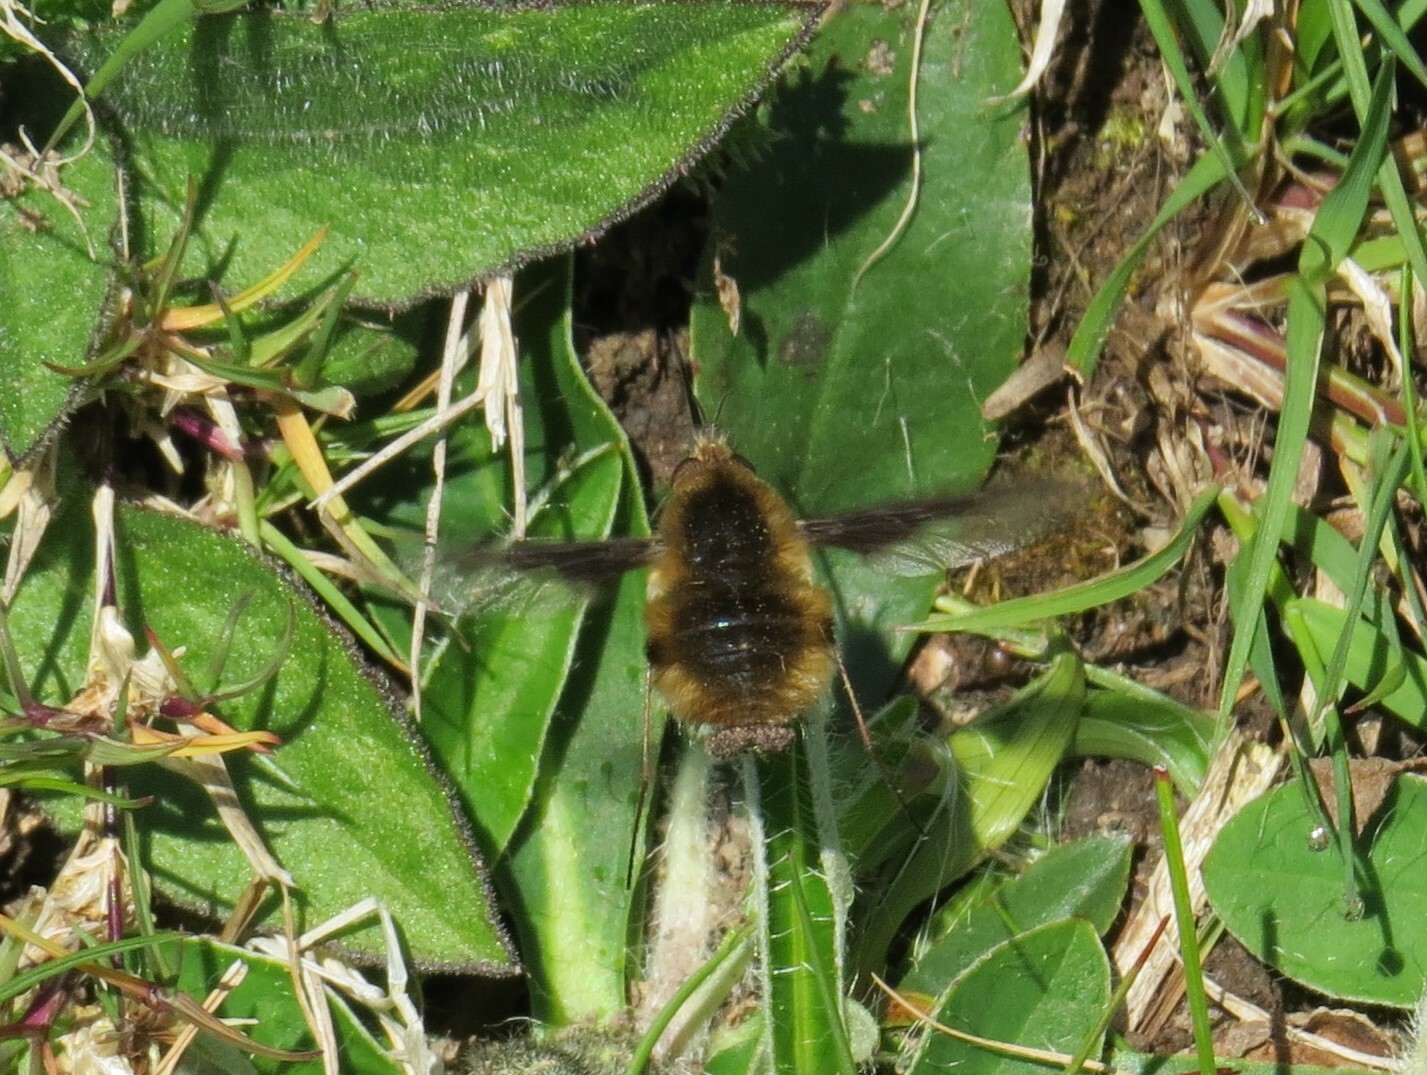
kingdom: Animalia
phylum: Arthropoda
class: Insecta
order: Diptera
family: Bombyliidae
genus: Bombylius
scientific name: Bombylius major
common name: Bee fly
